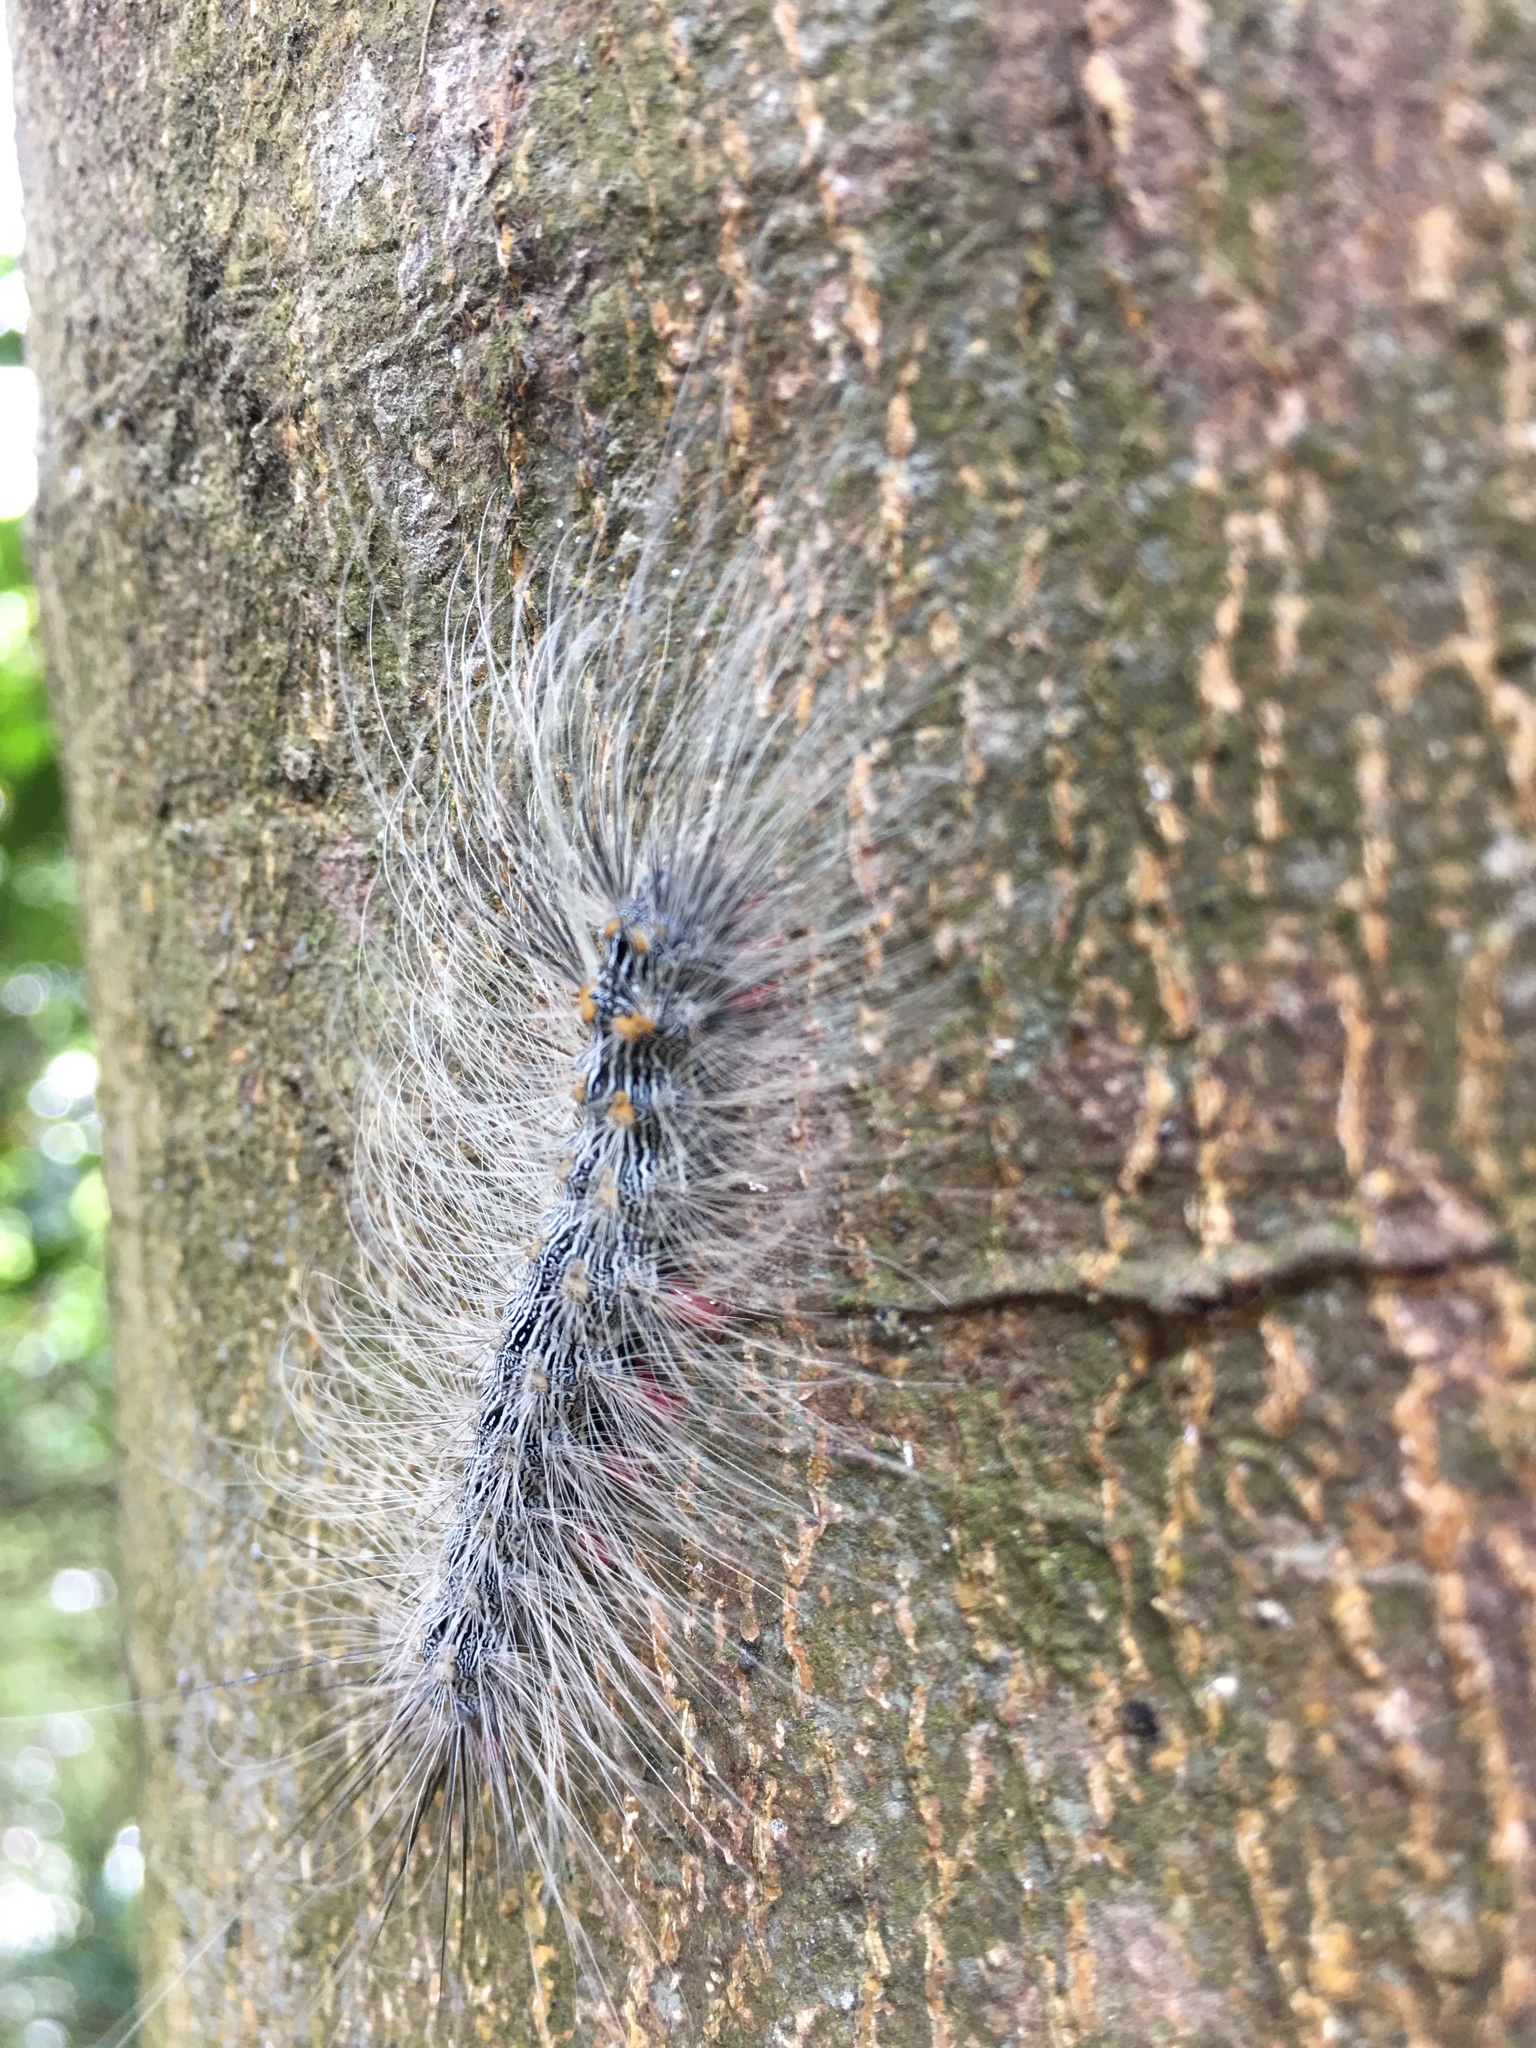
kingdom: Animalia
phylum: Arthropoda
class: Insecta
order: Lepidoptera
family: Erebidae
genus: Chrysaeglia
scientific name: Chrysaeglia magnifica
